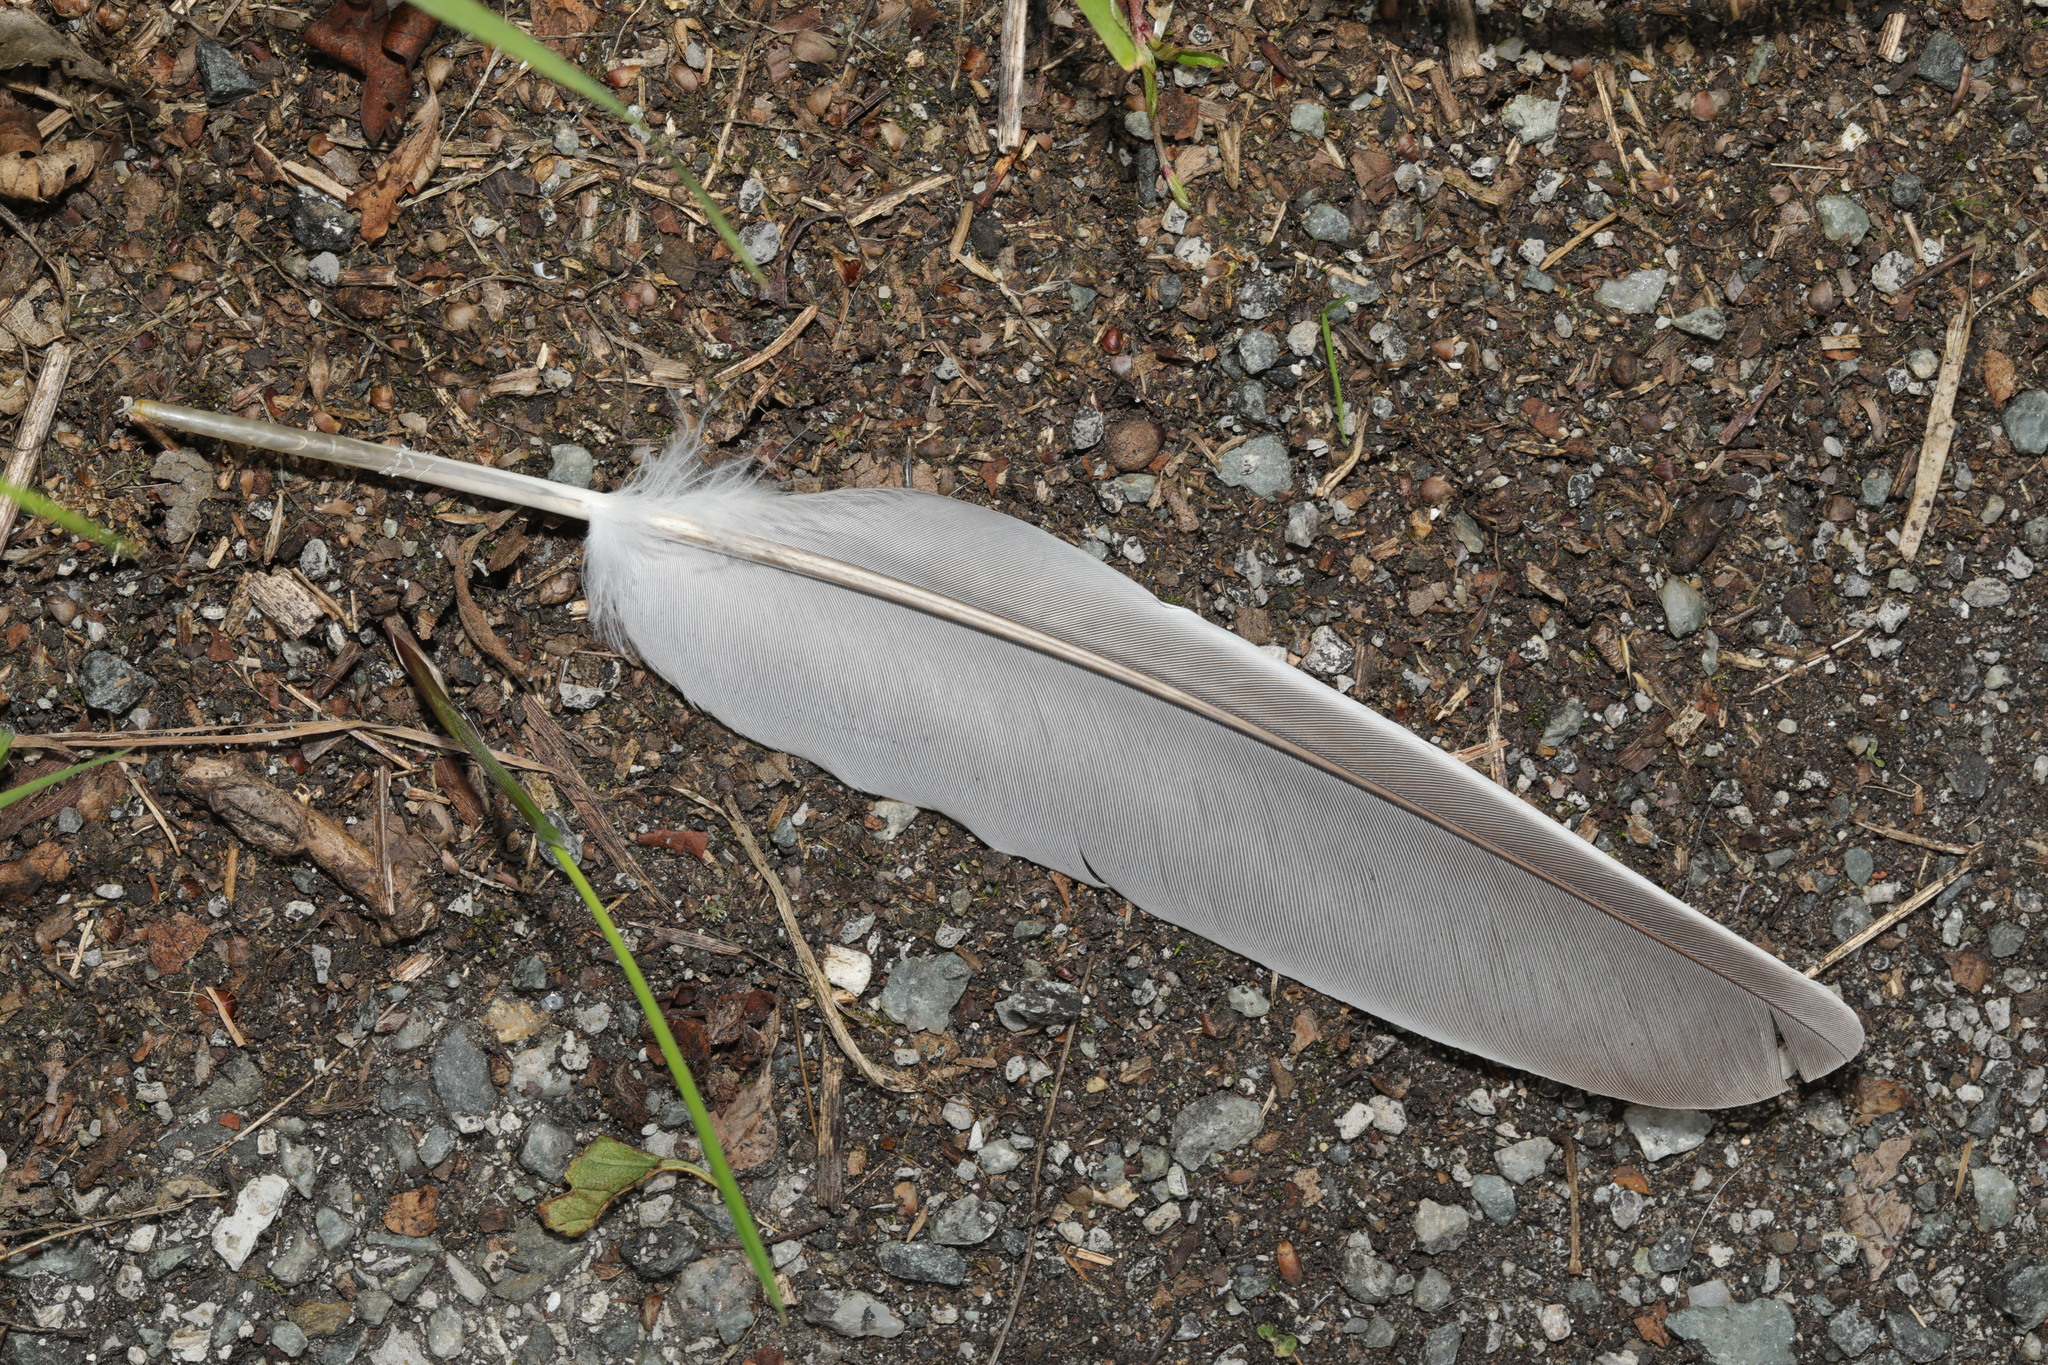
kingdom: Animalia
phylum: Chordata
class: Aves
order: Columbiformes
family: Columbidae
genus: Columba
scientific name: Columba palumbus
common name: Common wood pigeon
